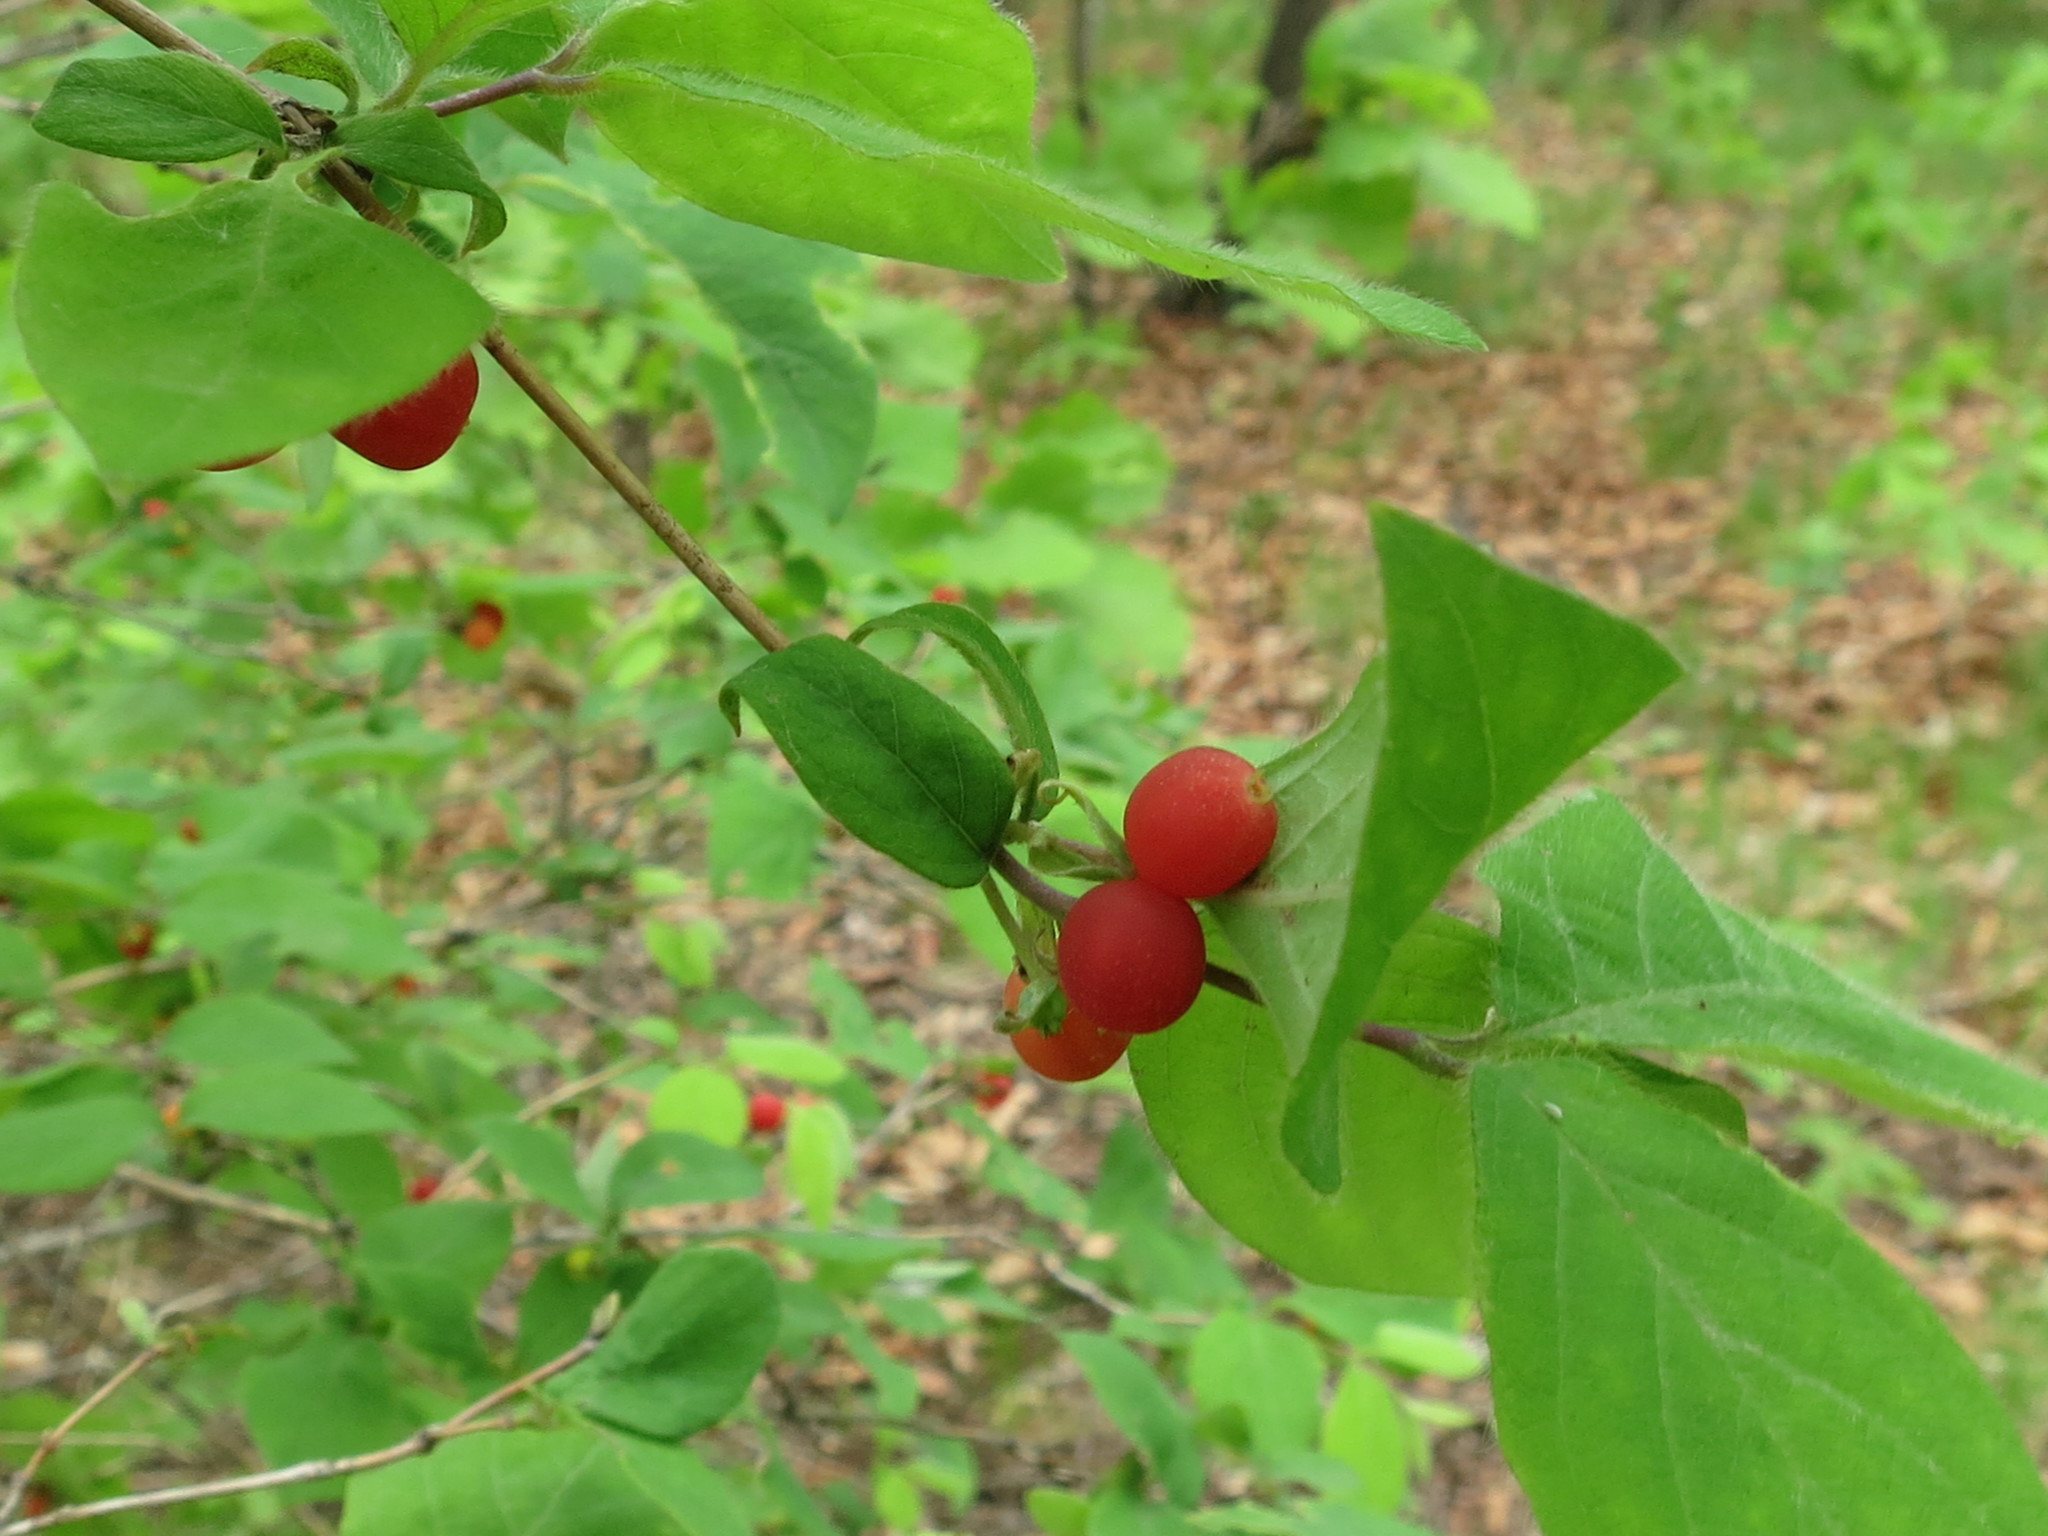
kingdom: Plantae
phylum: Tracheophyta
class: Magnoliopsida
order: Dipsacales
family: Caprifoliaceae
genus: Lonicera
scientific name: Lonicera praeflorens
